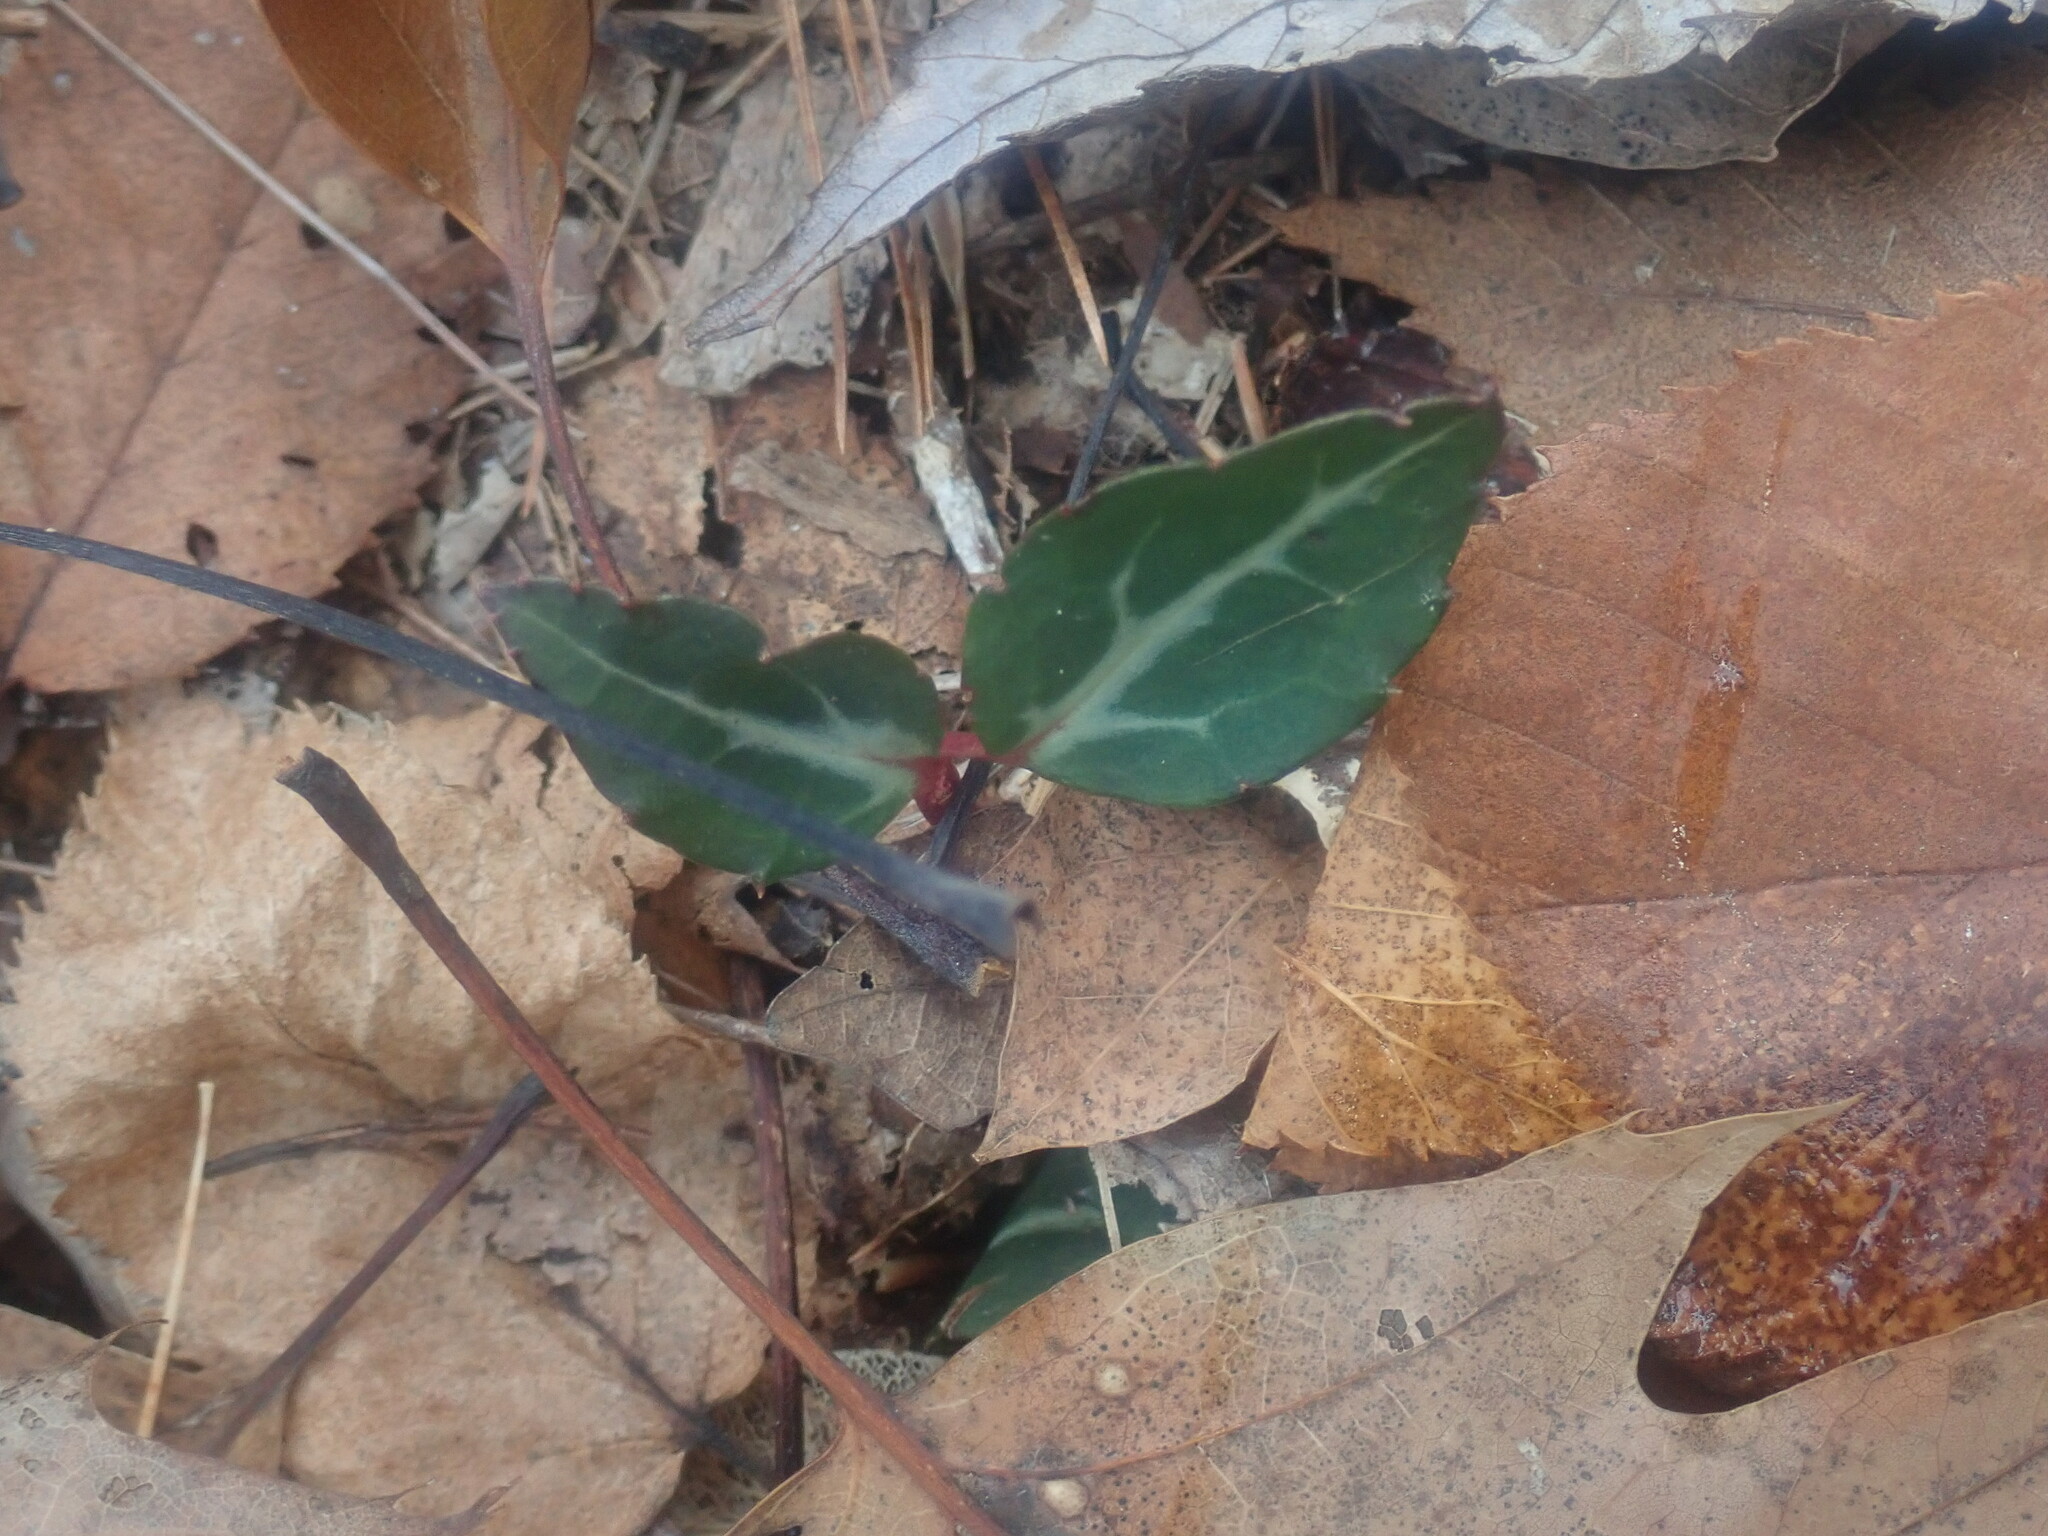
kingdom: Plantae
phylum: Tracheophyta
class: Magnoliopsida
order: Ericales
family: Ericaceae
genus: Chimaphila
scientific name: Chimaphila maculata
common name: Spotted pipsissewa
